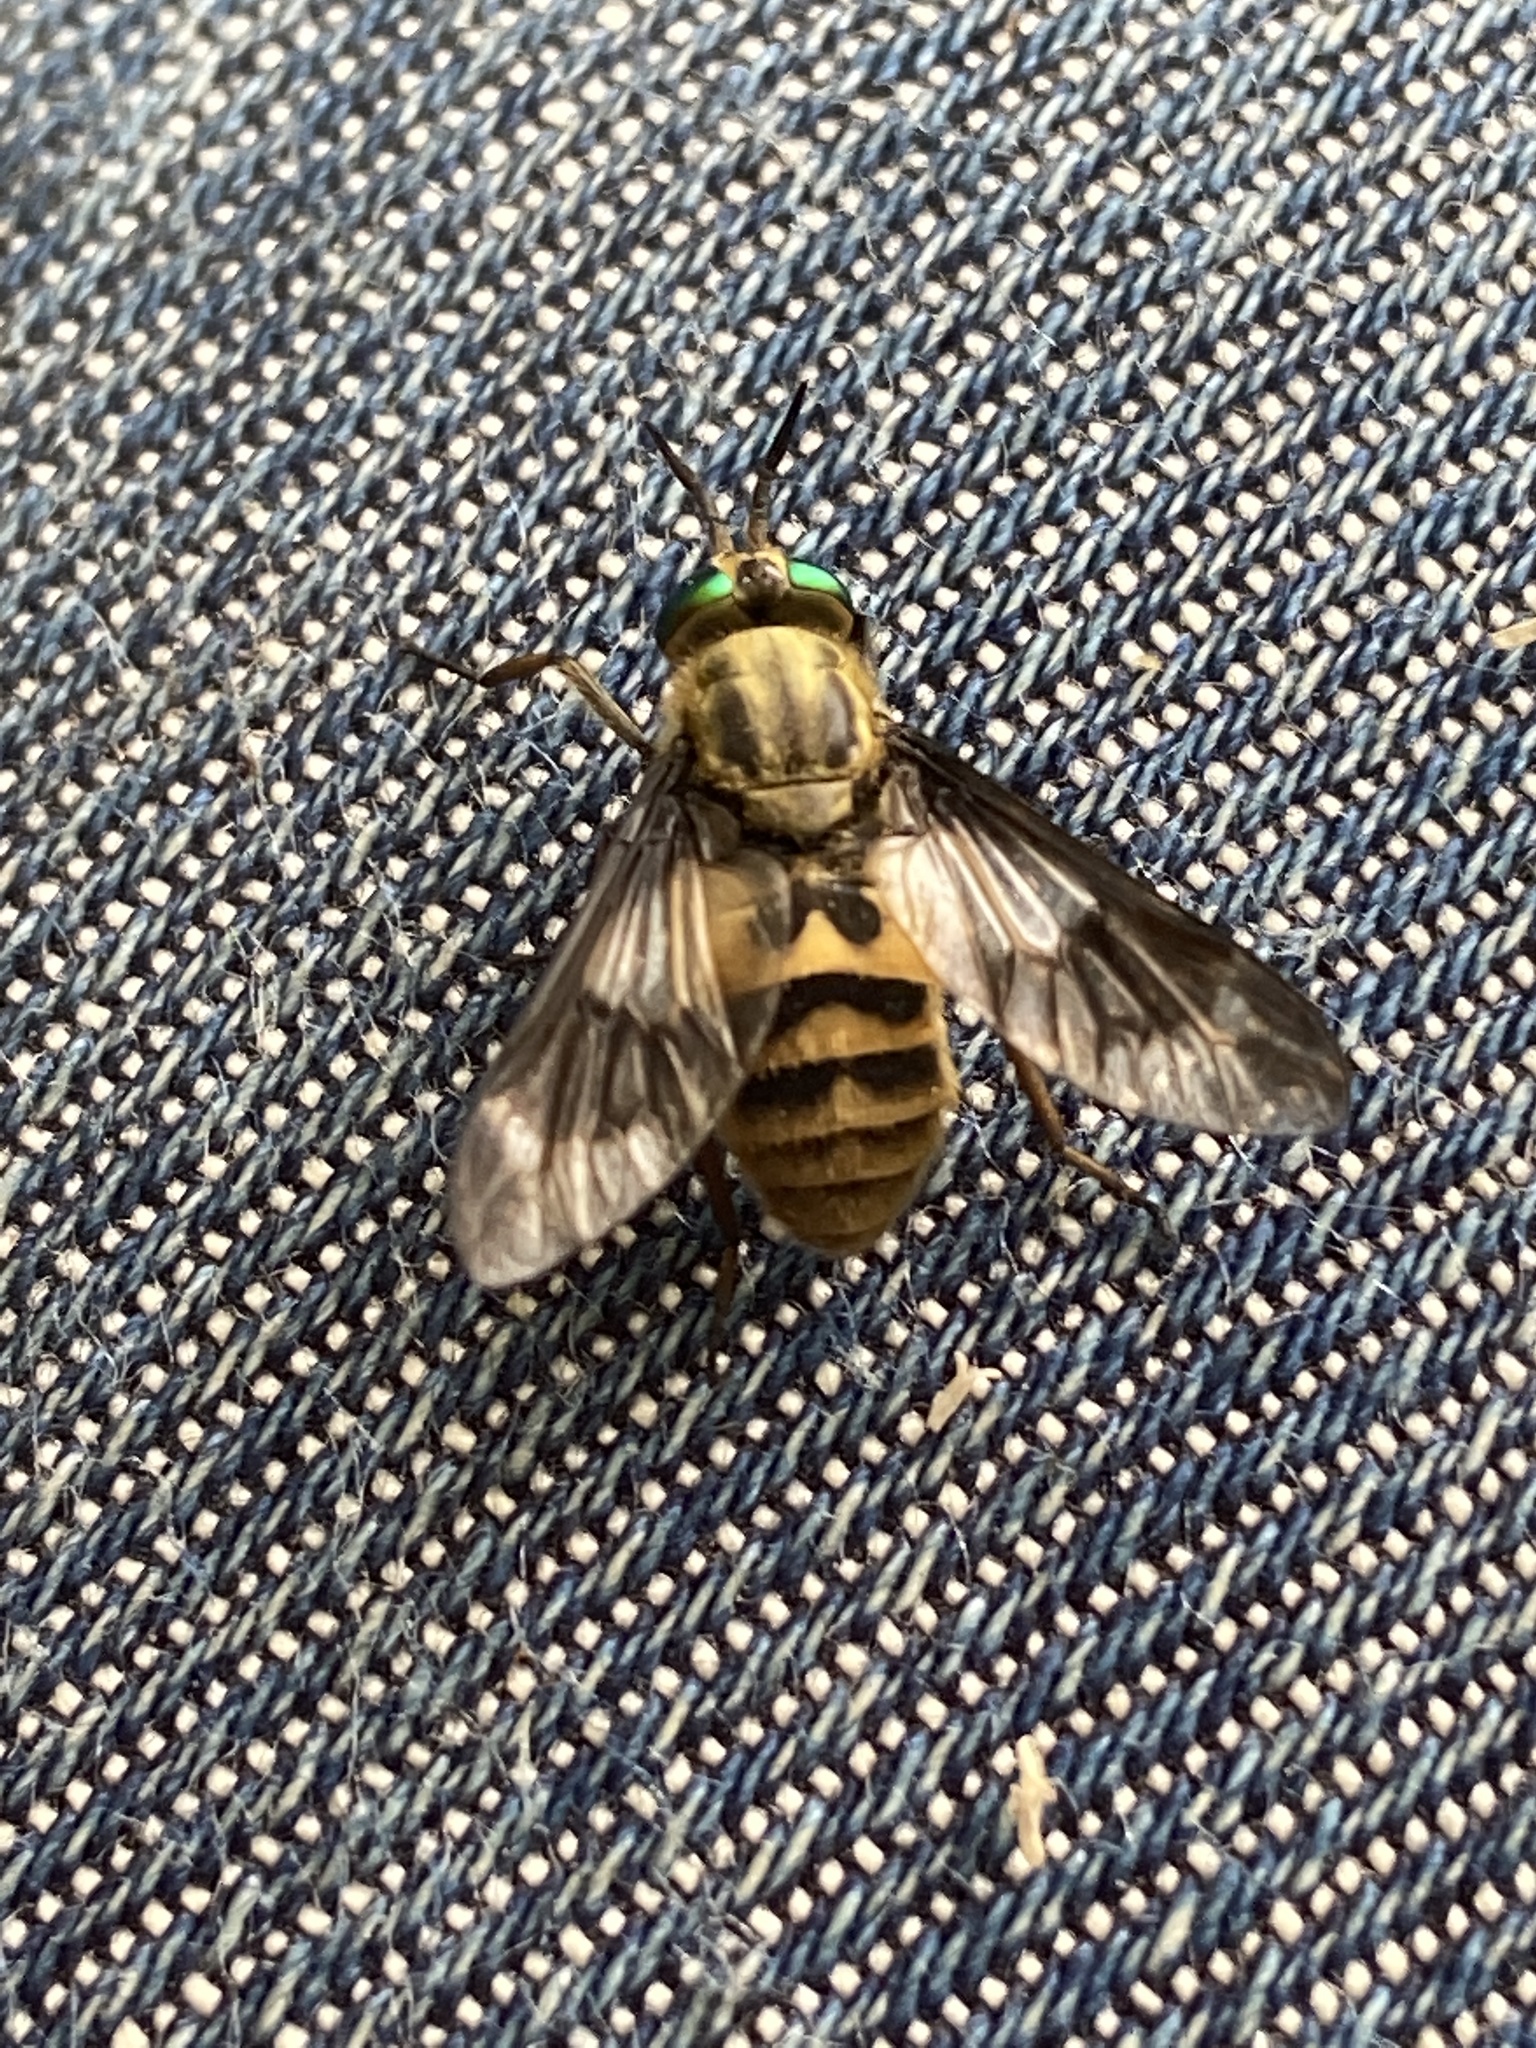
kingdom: Animalia
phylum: Arthropoda
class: Insecta
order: Diptera
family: Tabanidae
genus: Chrysops
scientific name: Chrysops relictus
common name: Twin-lobed deerfly
